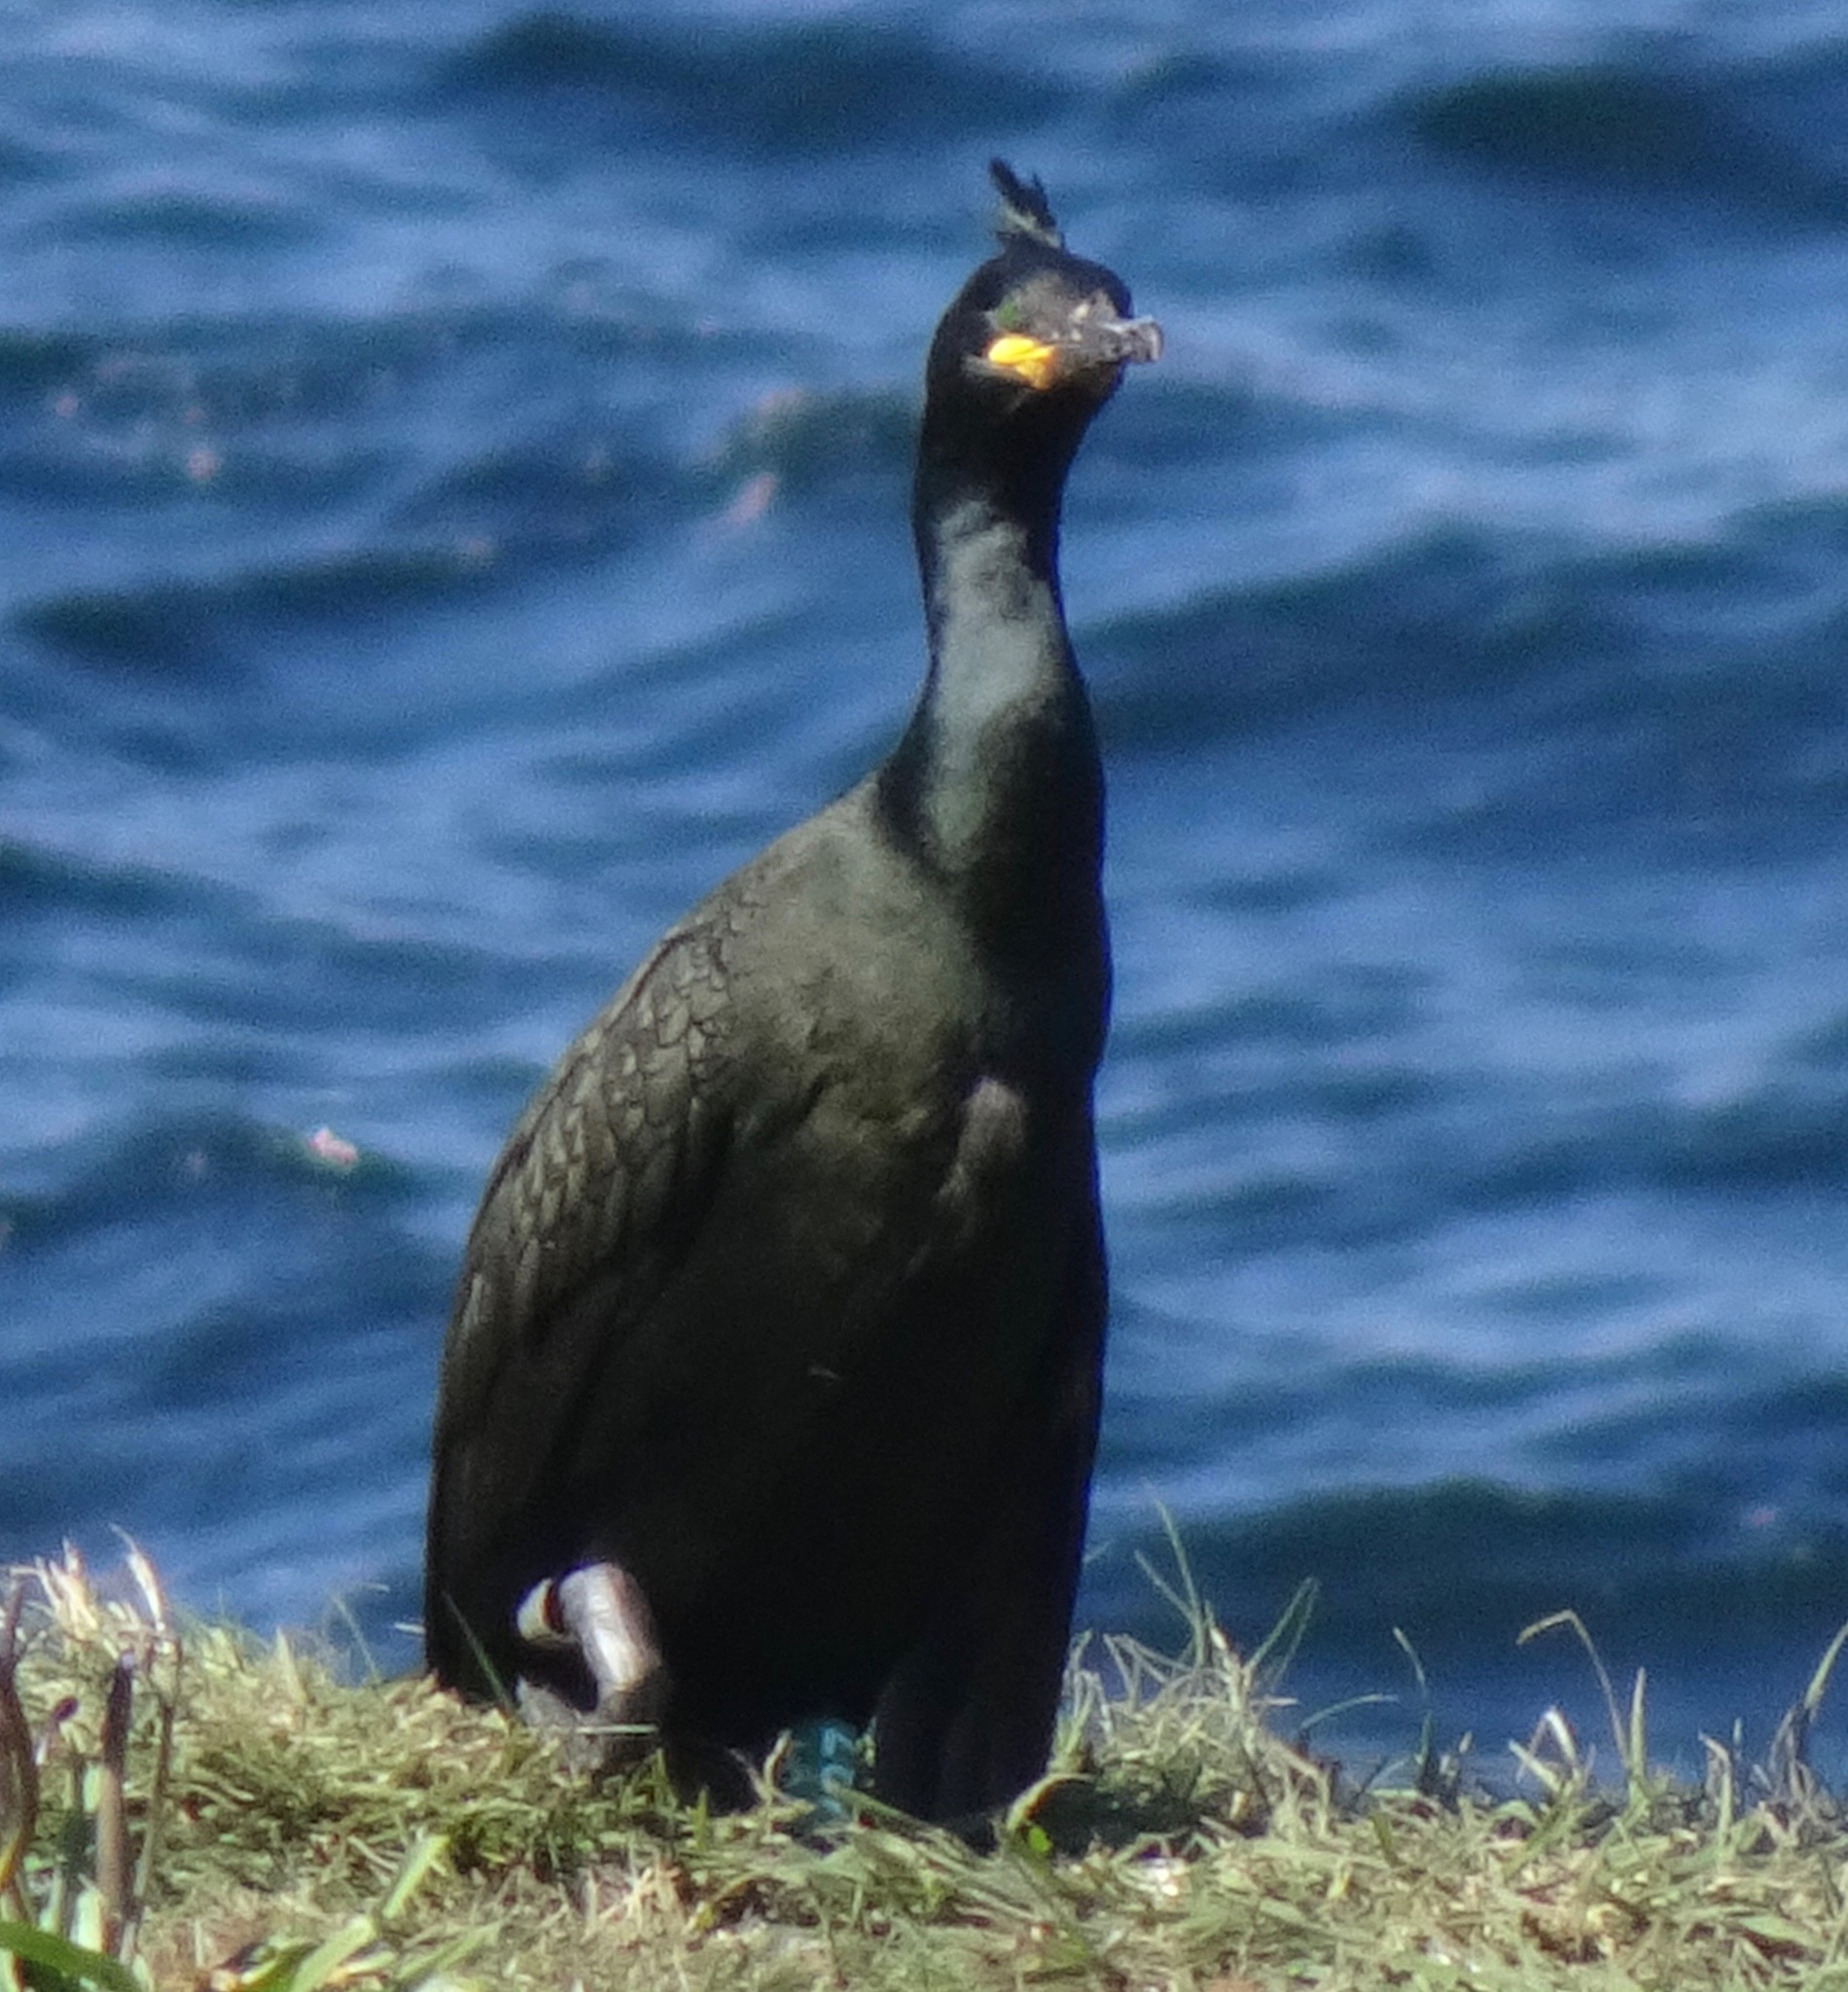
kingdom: Animalia
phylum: Chordata
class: Aves
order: Suliformes
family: Phalacrocoracidae
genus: Phalacrocorax
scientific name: Phalacrocorax aristotelis
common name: European shag
